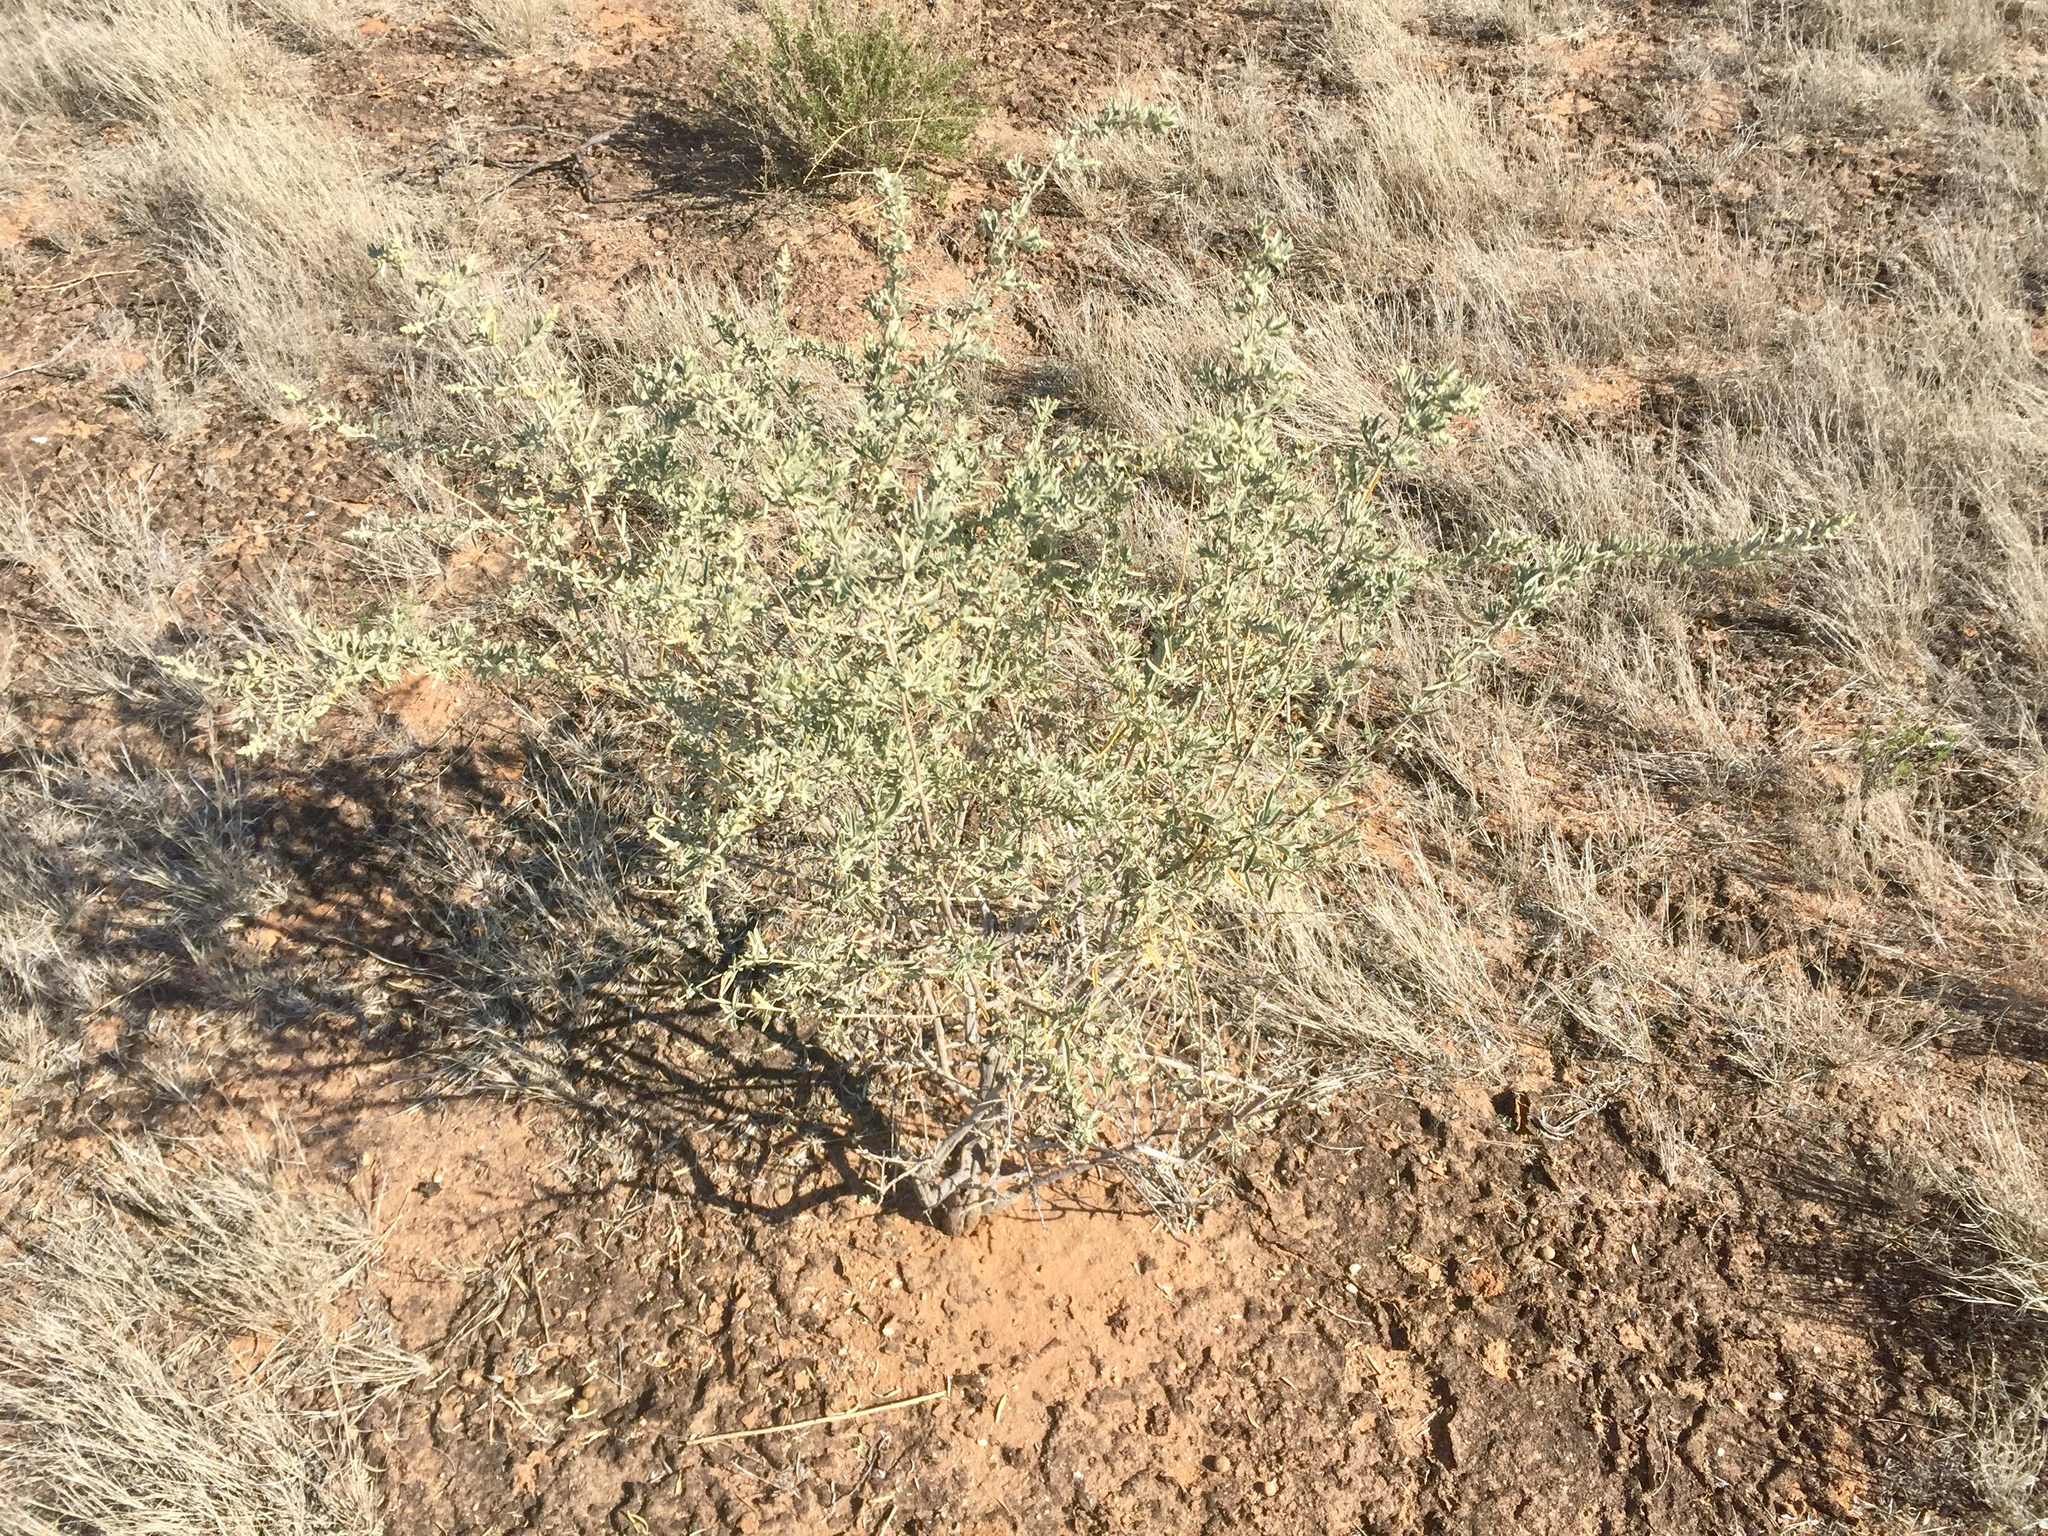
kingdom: Plantae
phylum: Tracheophyta
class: Magnoliopsida
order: Caryophyllales
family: Amaranthaceae
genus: Atriplex
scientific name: Atriplex canescens
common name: Four-wing saltbush
